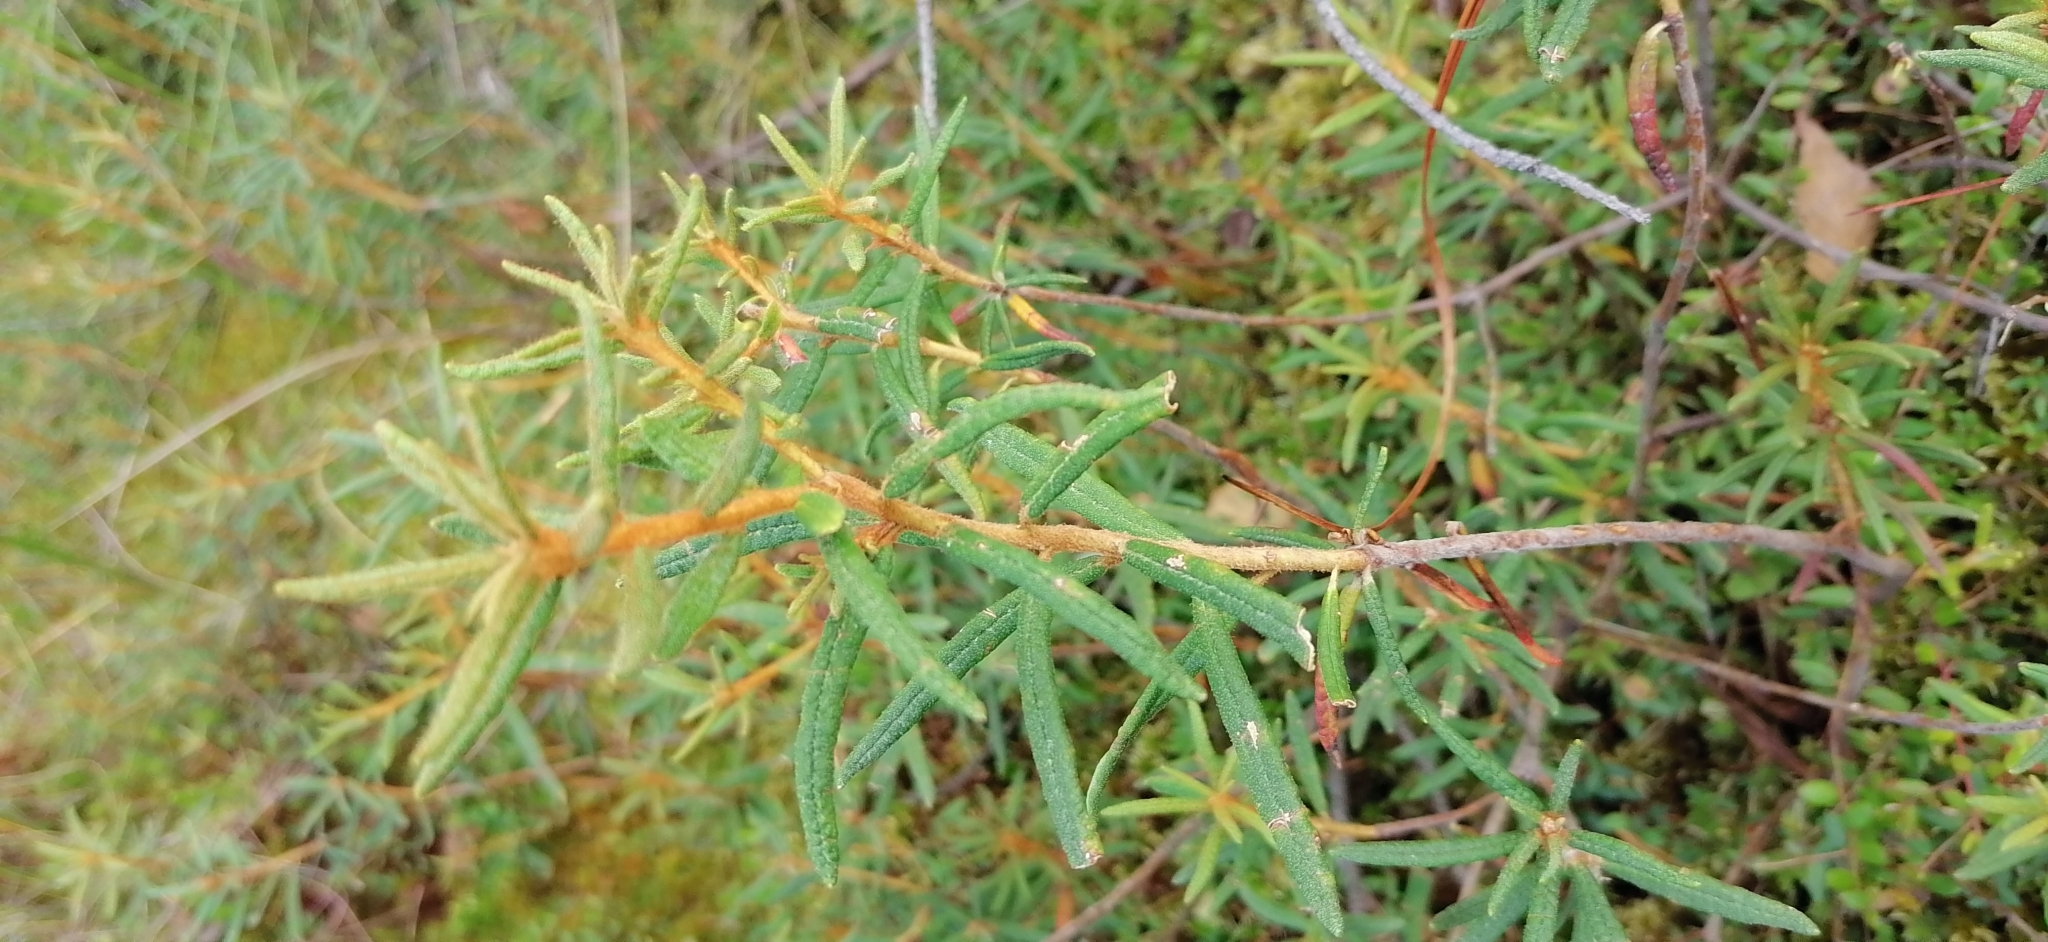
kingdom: Plantae
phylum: Tracheophyta
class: Magnoliopsida
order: Ericales
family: Ericaceae
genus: Rhododendron
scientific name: Rhododendron tomentosum
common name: Marsh labrador tea
